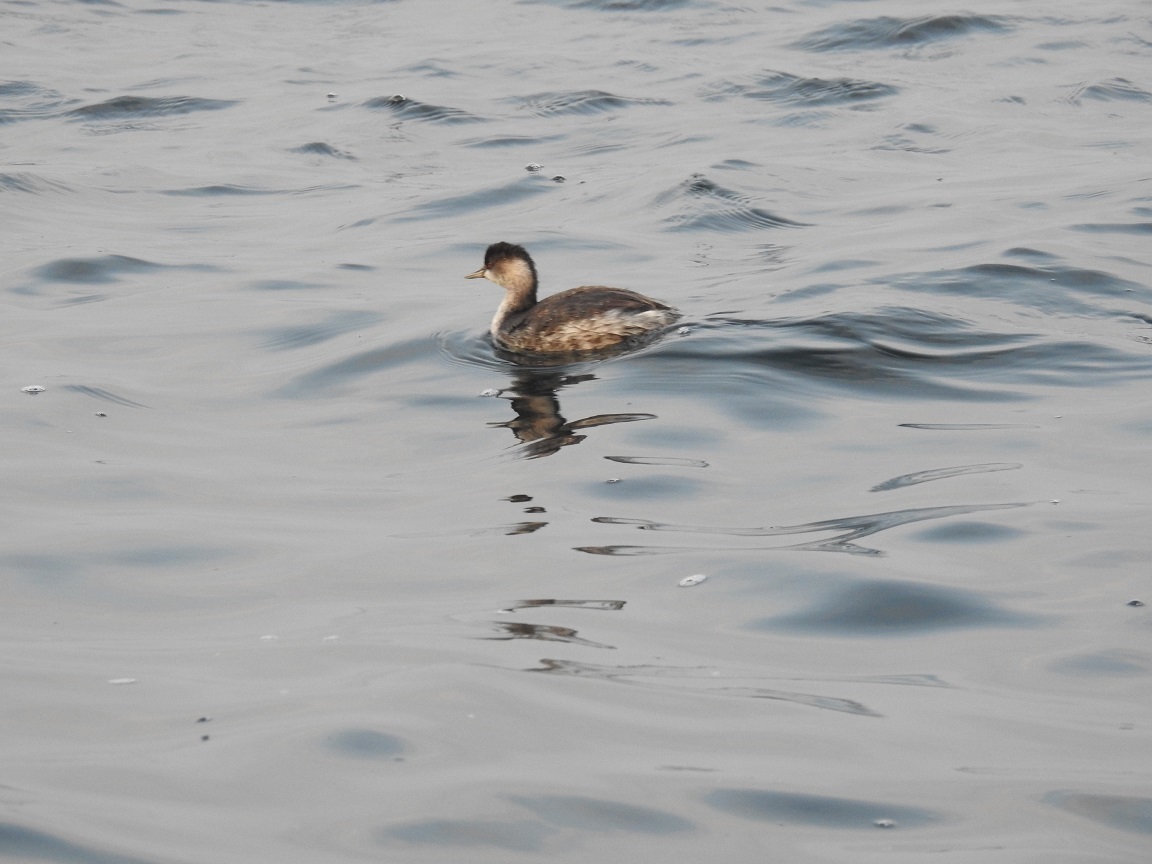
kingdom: Animalia
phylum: Chordata
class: Aves
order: Podicipediformes
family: Podicipedidae
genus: Podiceps
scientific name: Podiceps nigricollis
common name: Black-necked grebe
